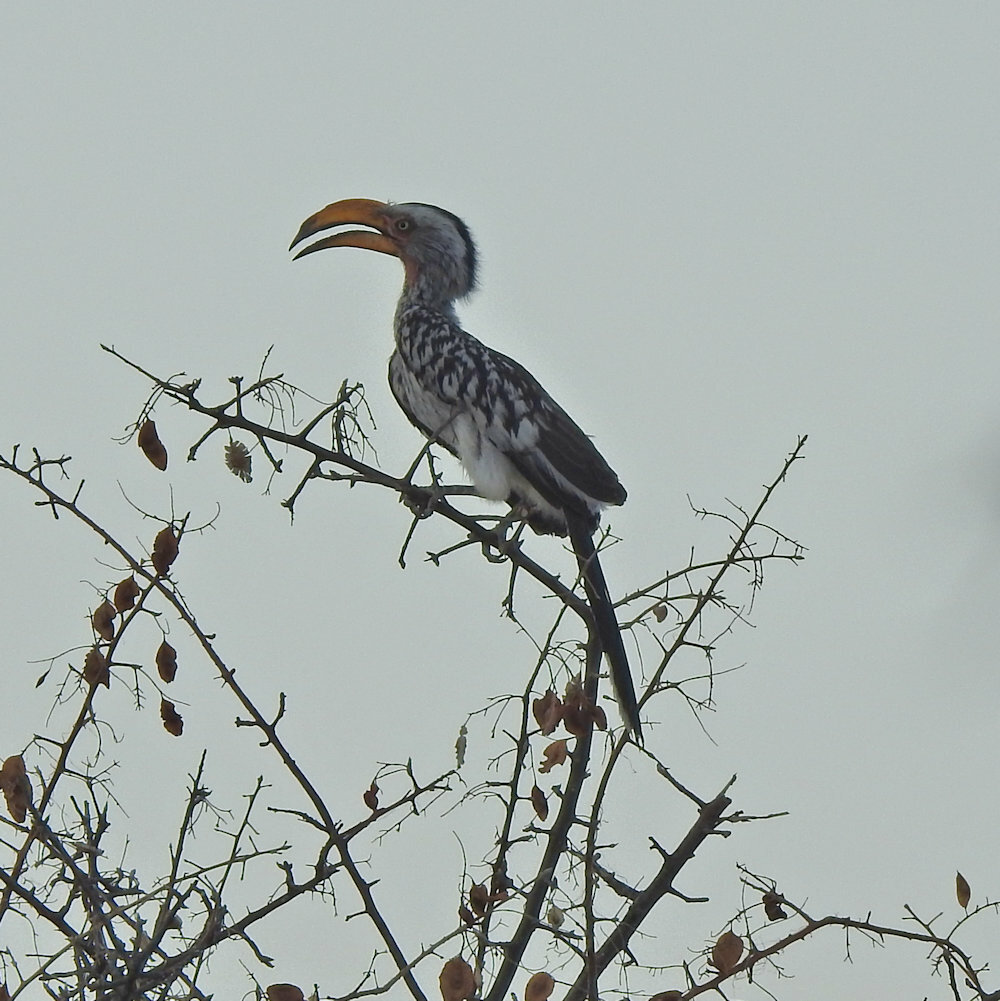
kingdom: Animalia
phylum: Chordata
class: Aves
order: Bucerotiformes
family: Bucerotidae
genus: Tockus
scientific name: Tockus leucomelas
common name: Southern yellow-billed hornbill
